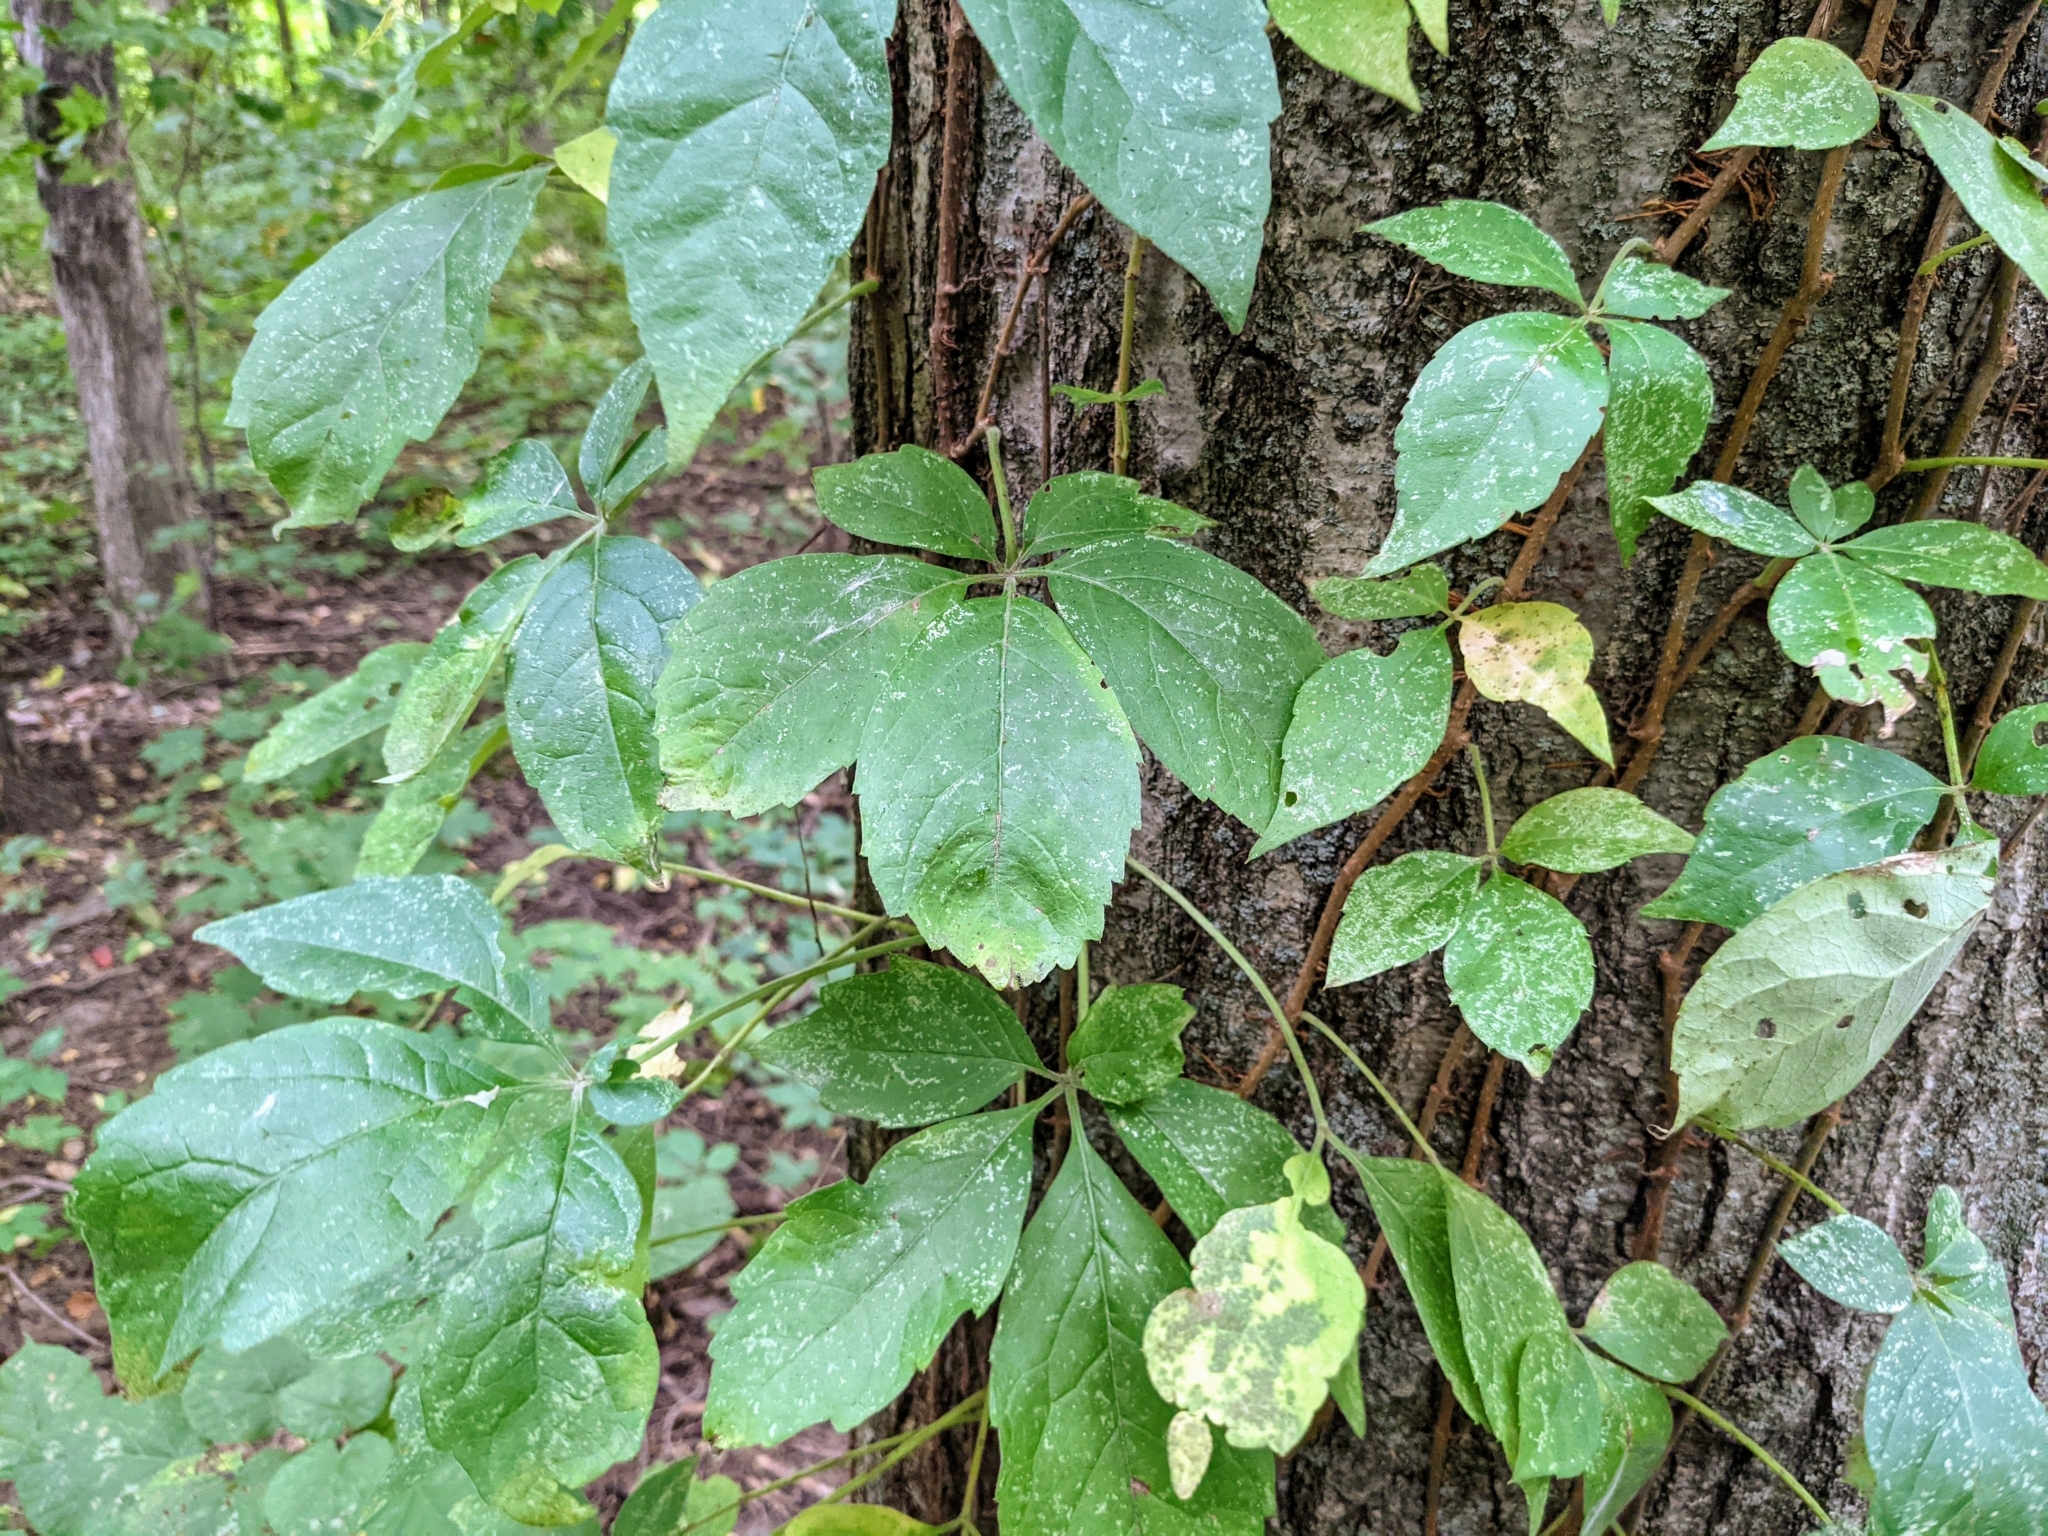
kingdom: Plantae
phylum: Tracheophyta
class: Magnoliopsida
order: Vitales
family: Vitaceae
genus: Parthenocissus
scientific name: Parthenocissus quinquefolia
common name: Virginia-creeper
